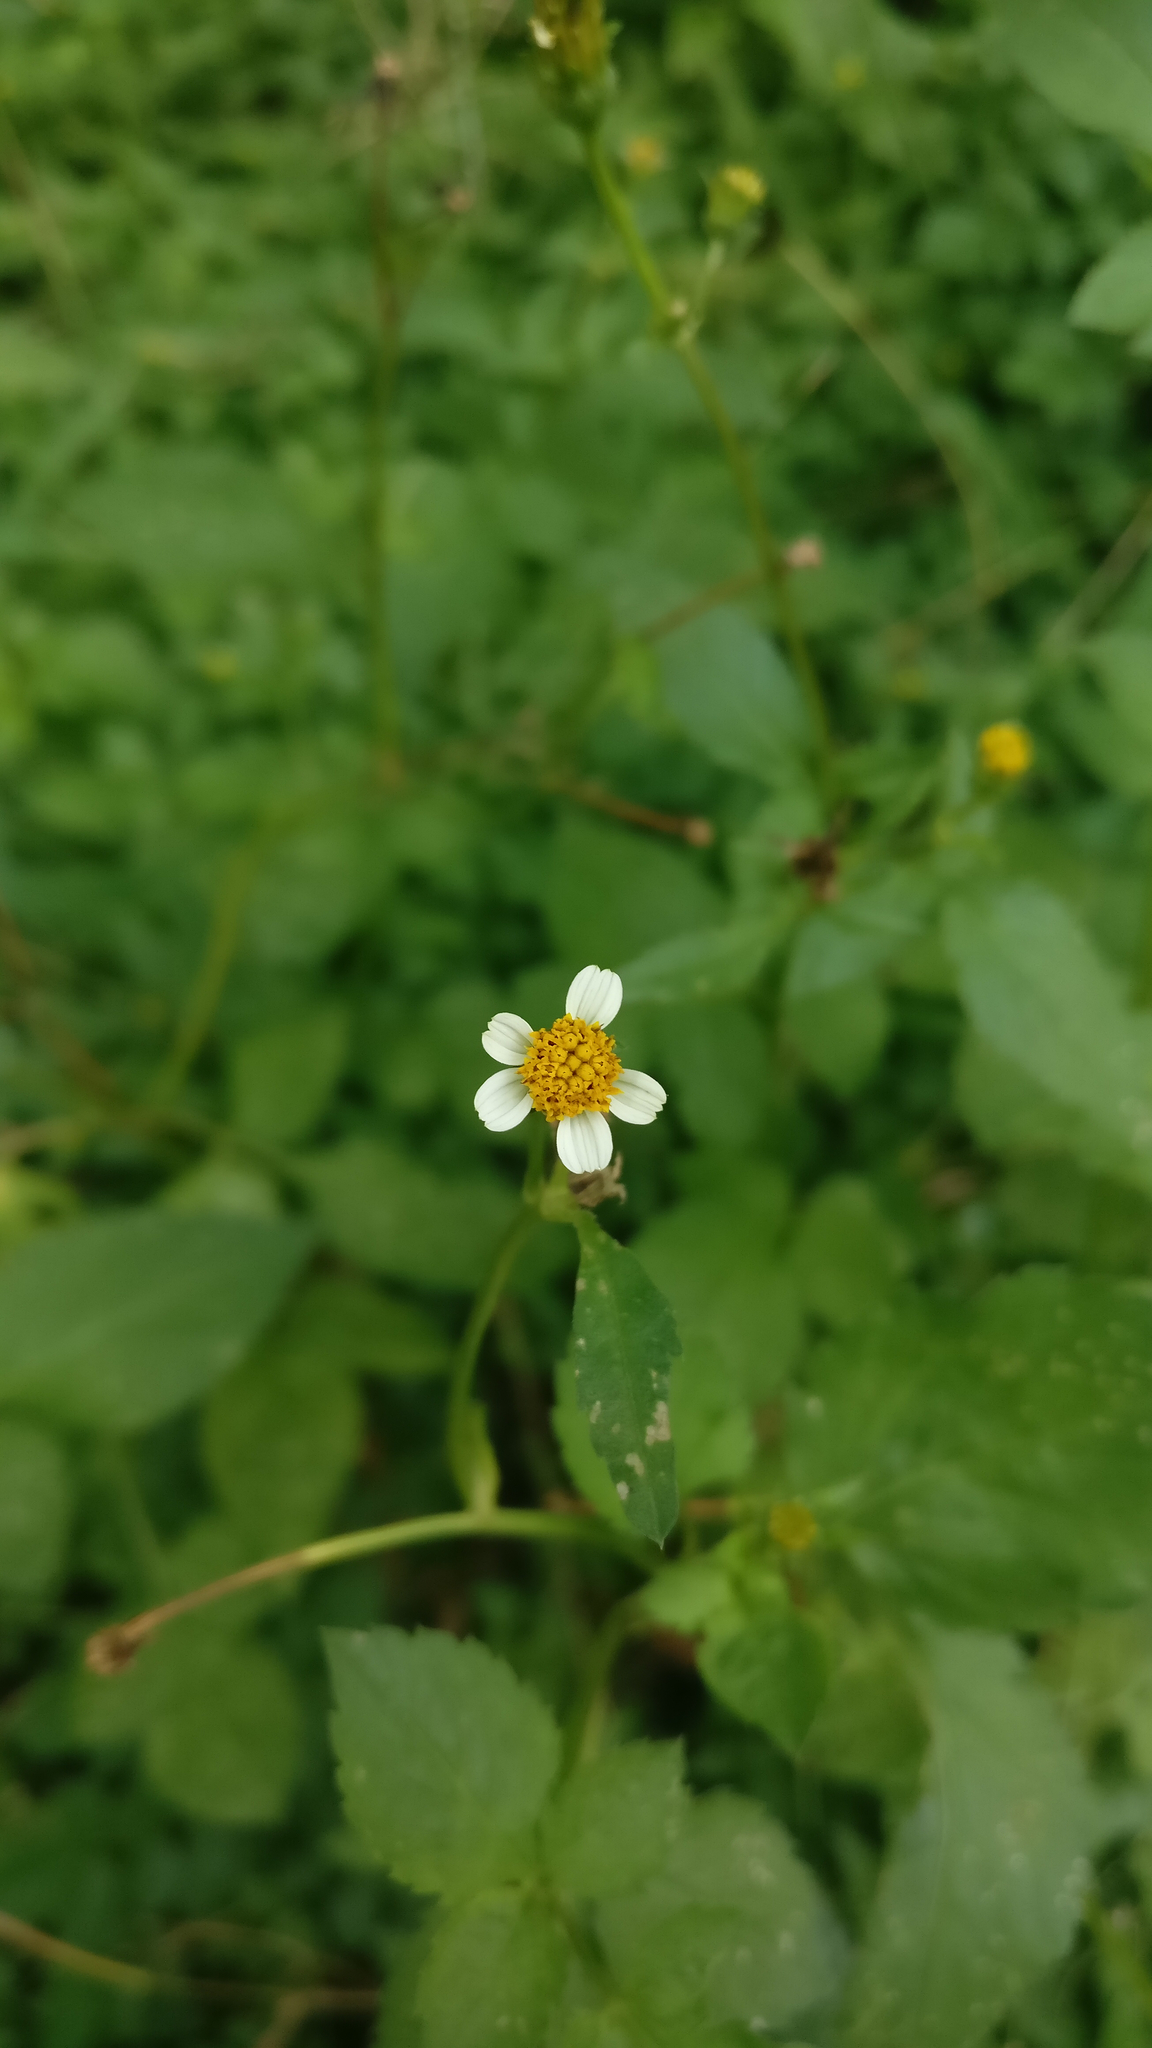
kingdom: Plantae
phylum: Tracheophyta
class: Magnoliopsida
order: Asterales
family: Asteraceae
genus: Tridax
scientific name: Tridax procumbens
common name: Coatbuttons
